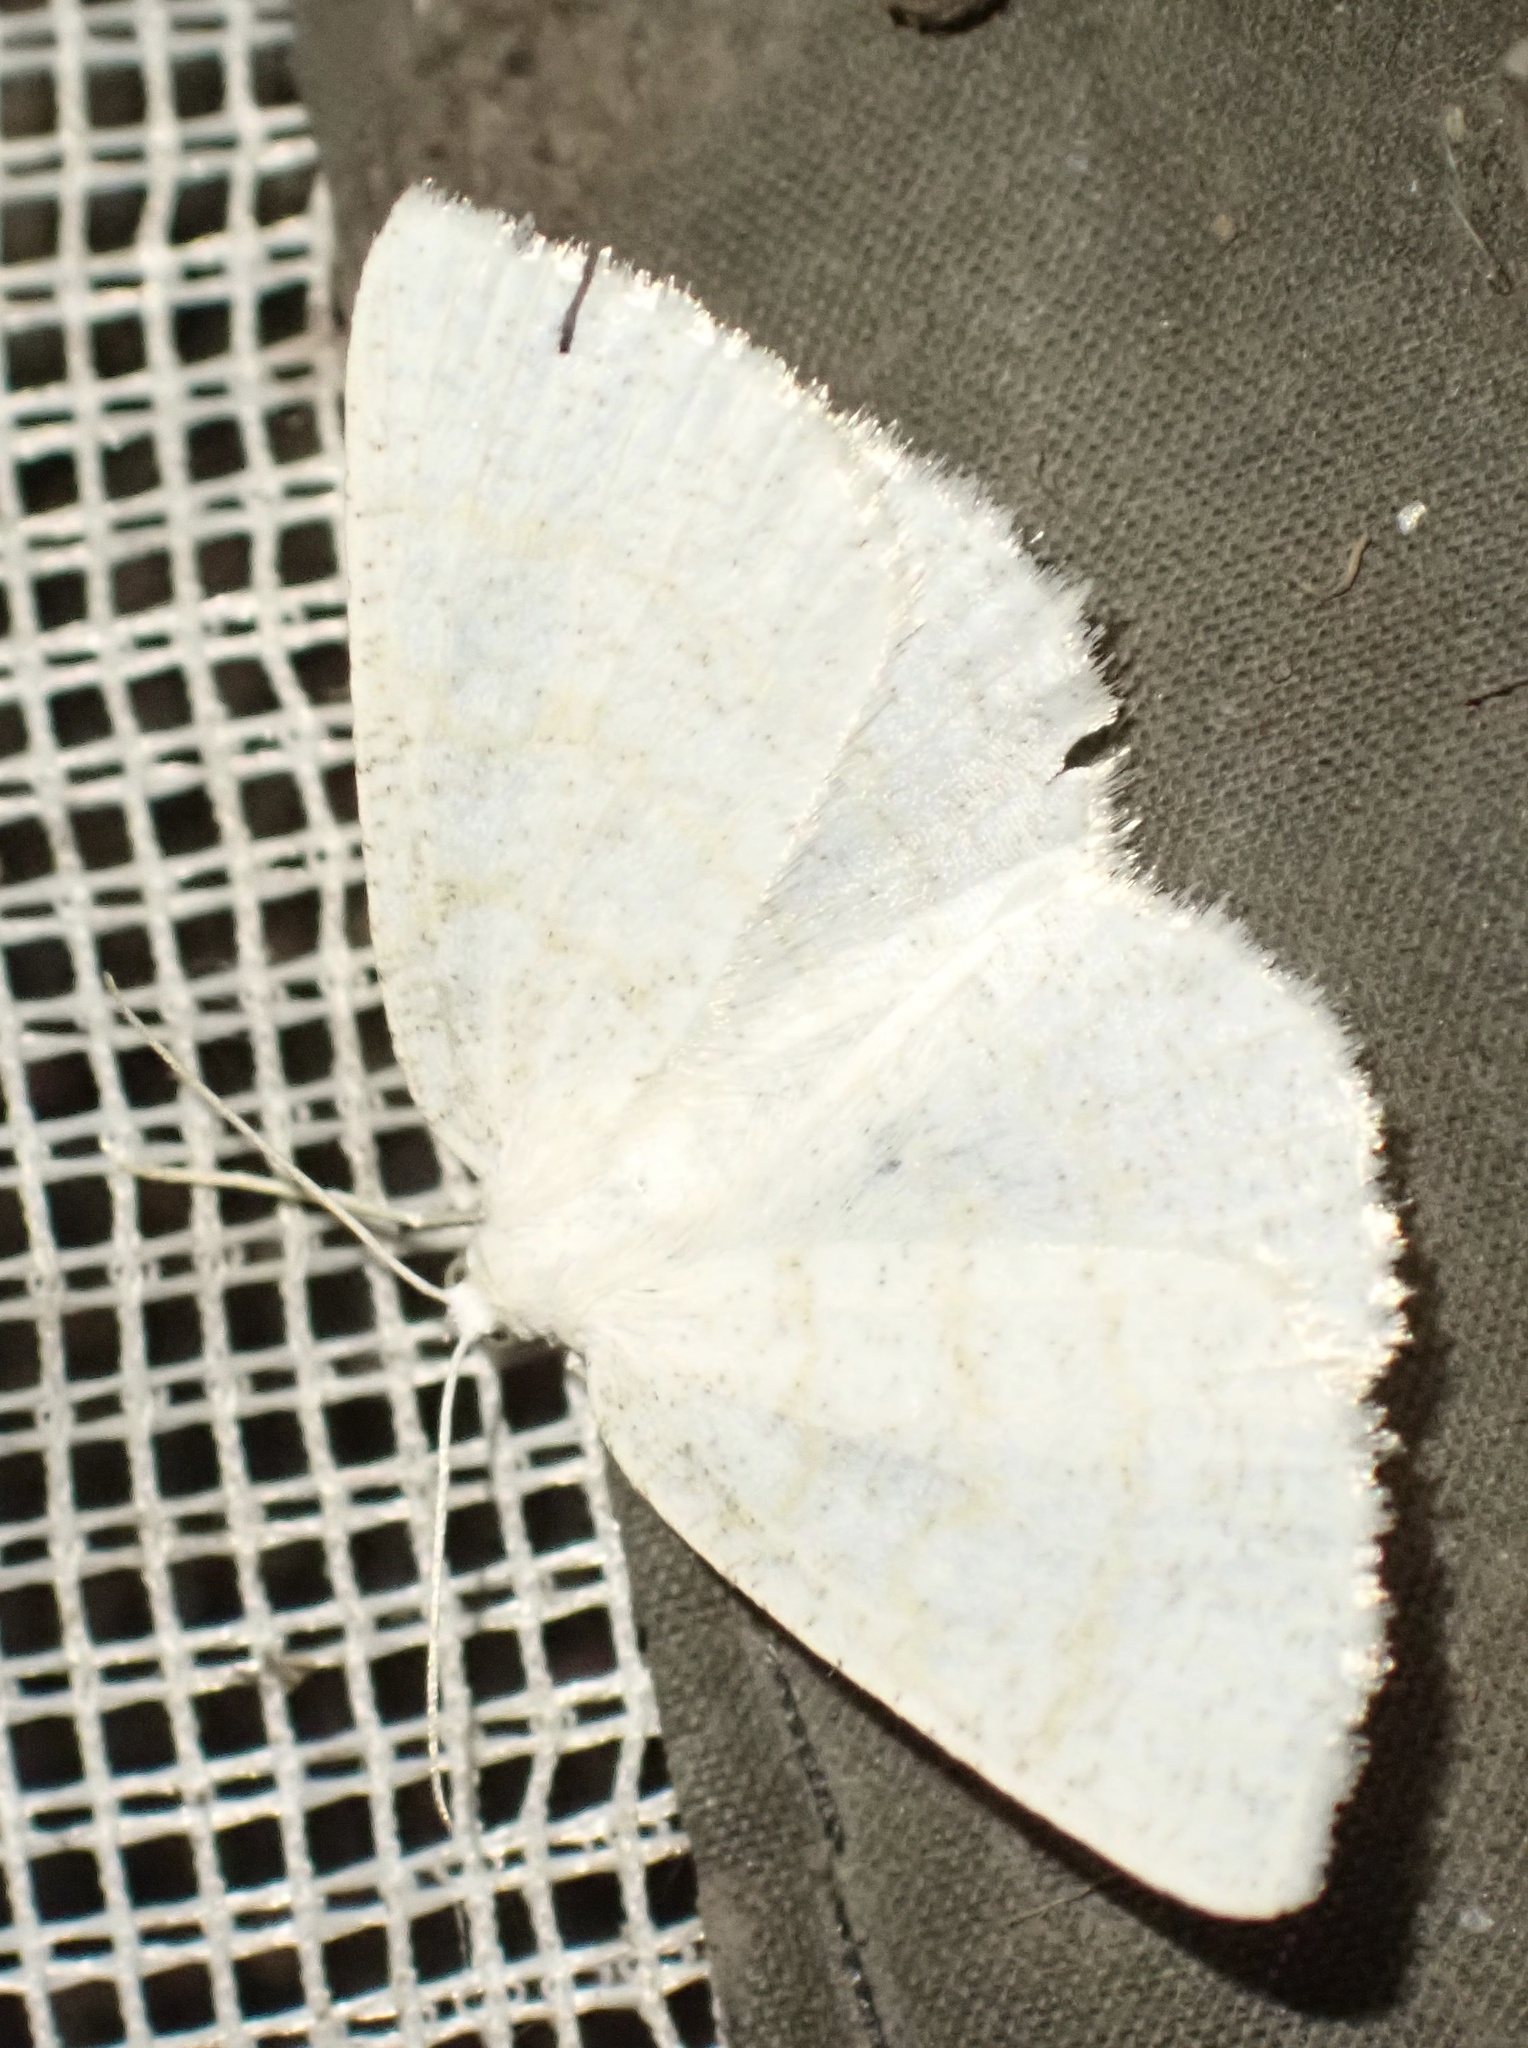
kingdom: Animalia
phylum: Arthropoda
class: Insecta
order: Lepidoptera
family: Geometridae
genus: Cabera
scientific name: Cabera exanthemata
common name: Common wave
